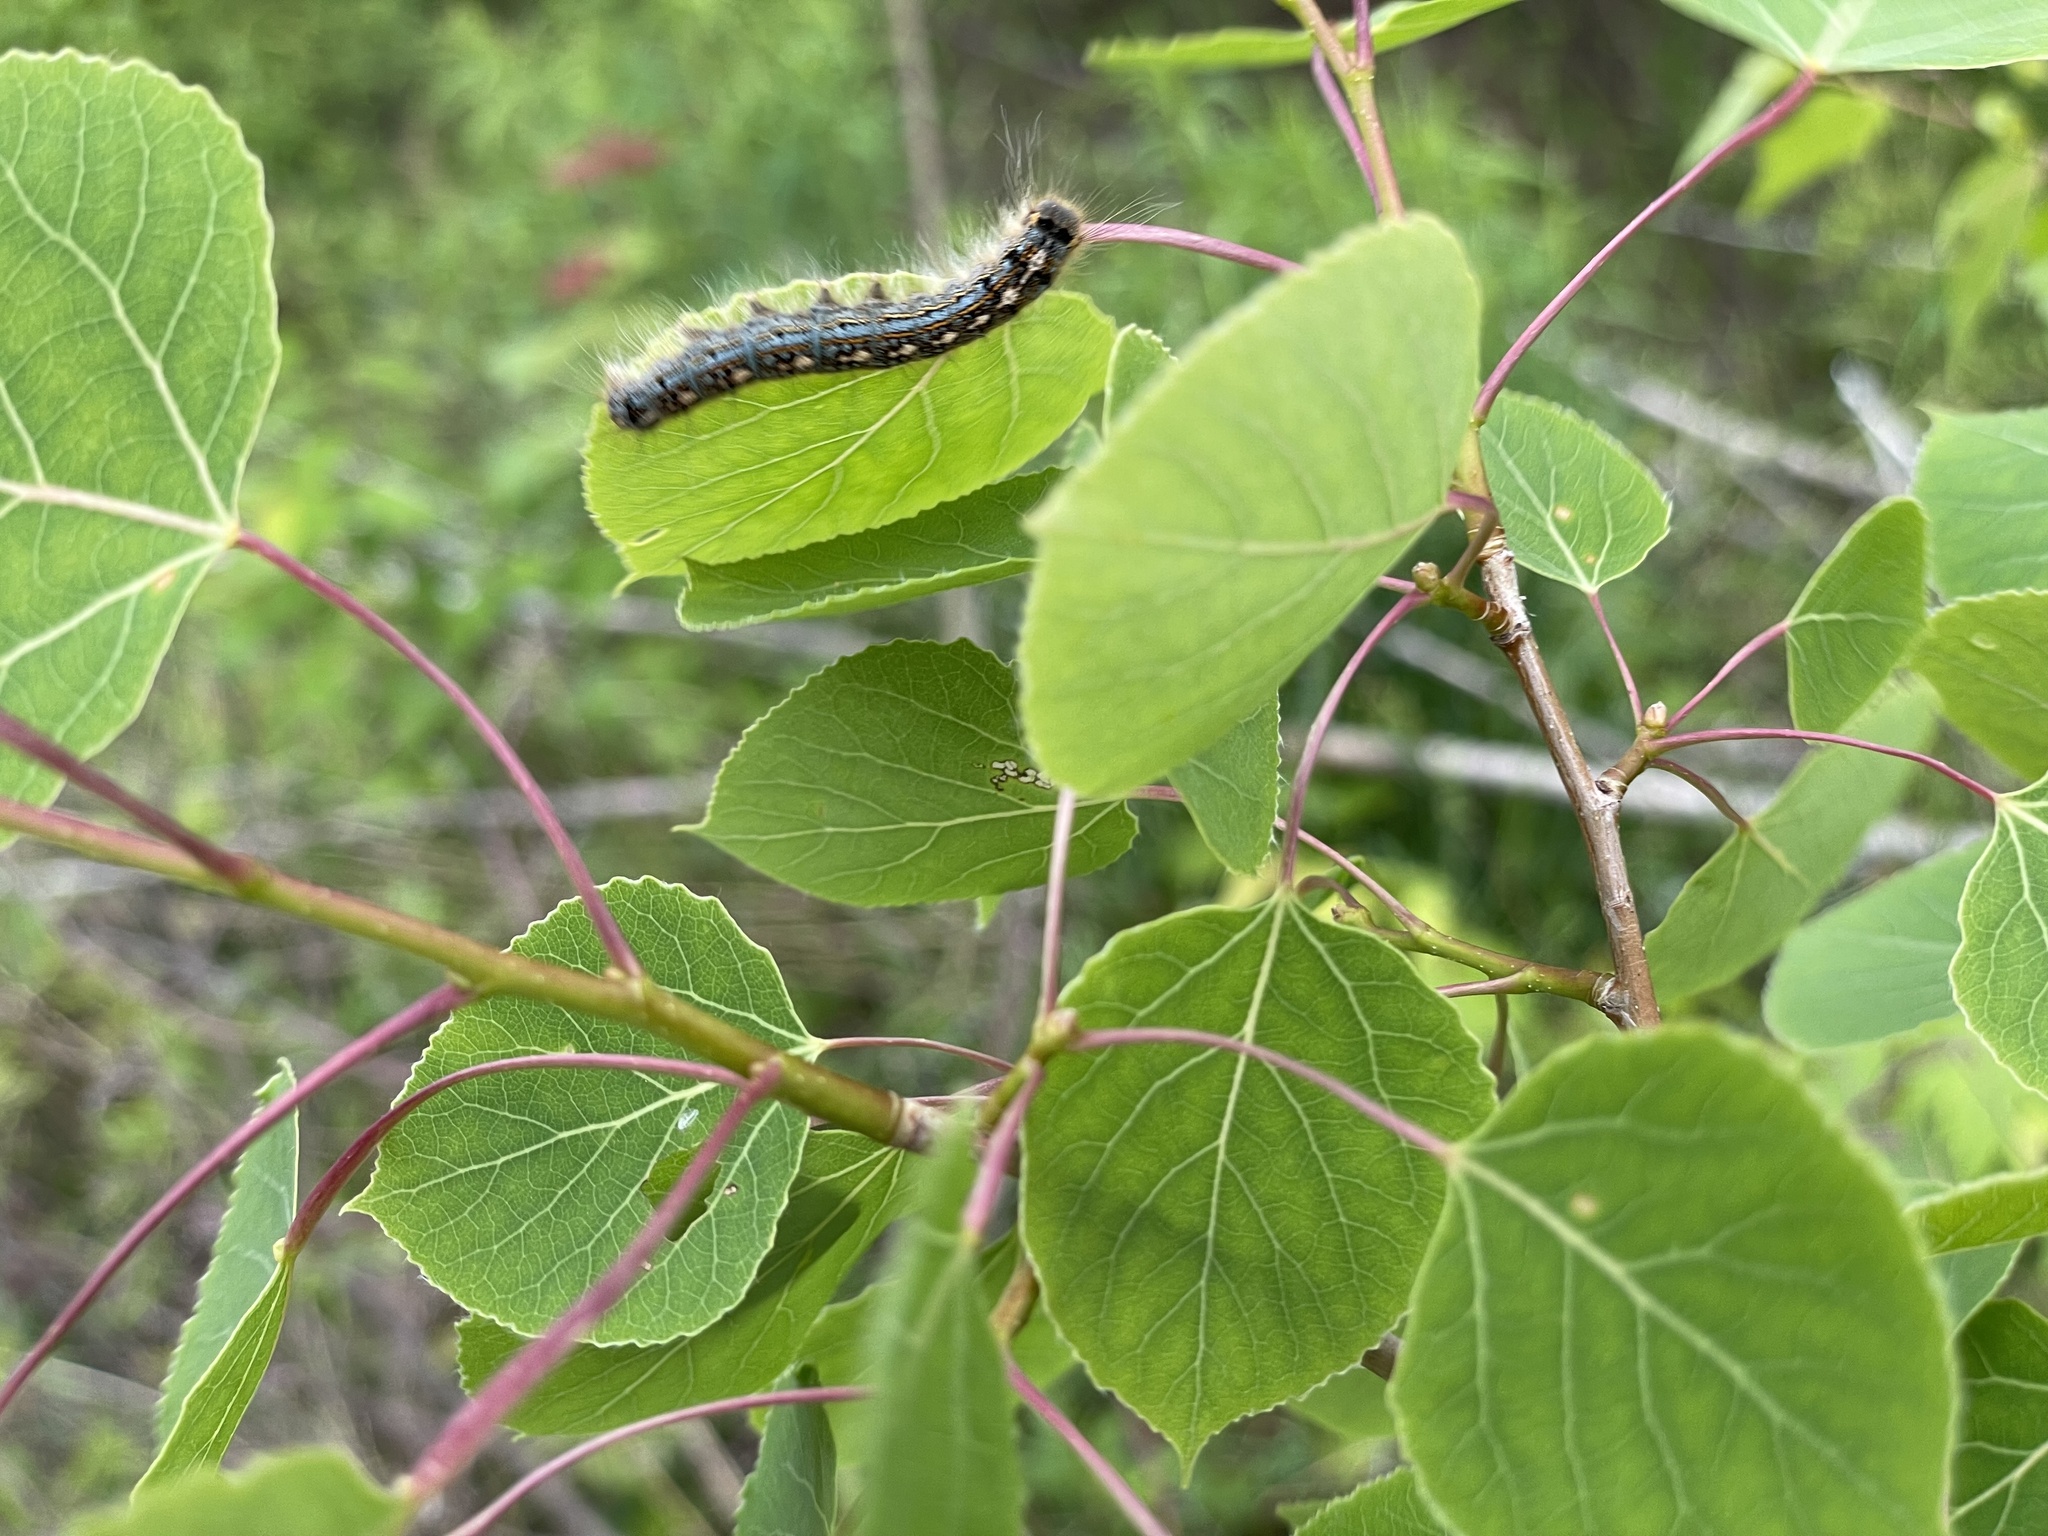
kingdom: Animalia
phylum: Arthropoda
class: Insecta
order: Lepidoptera
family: Lasiocampidae
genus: Malacosoma
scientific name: Malacosoma disstria
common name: Forest tent caterpillar
